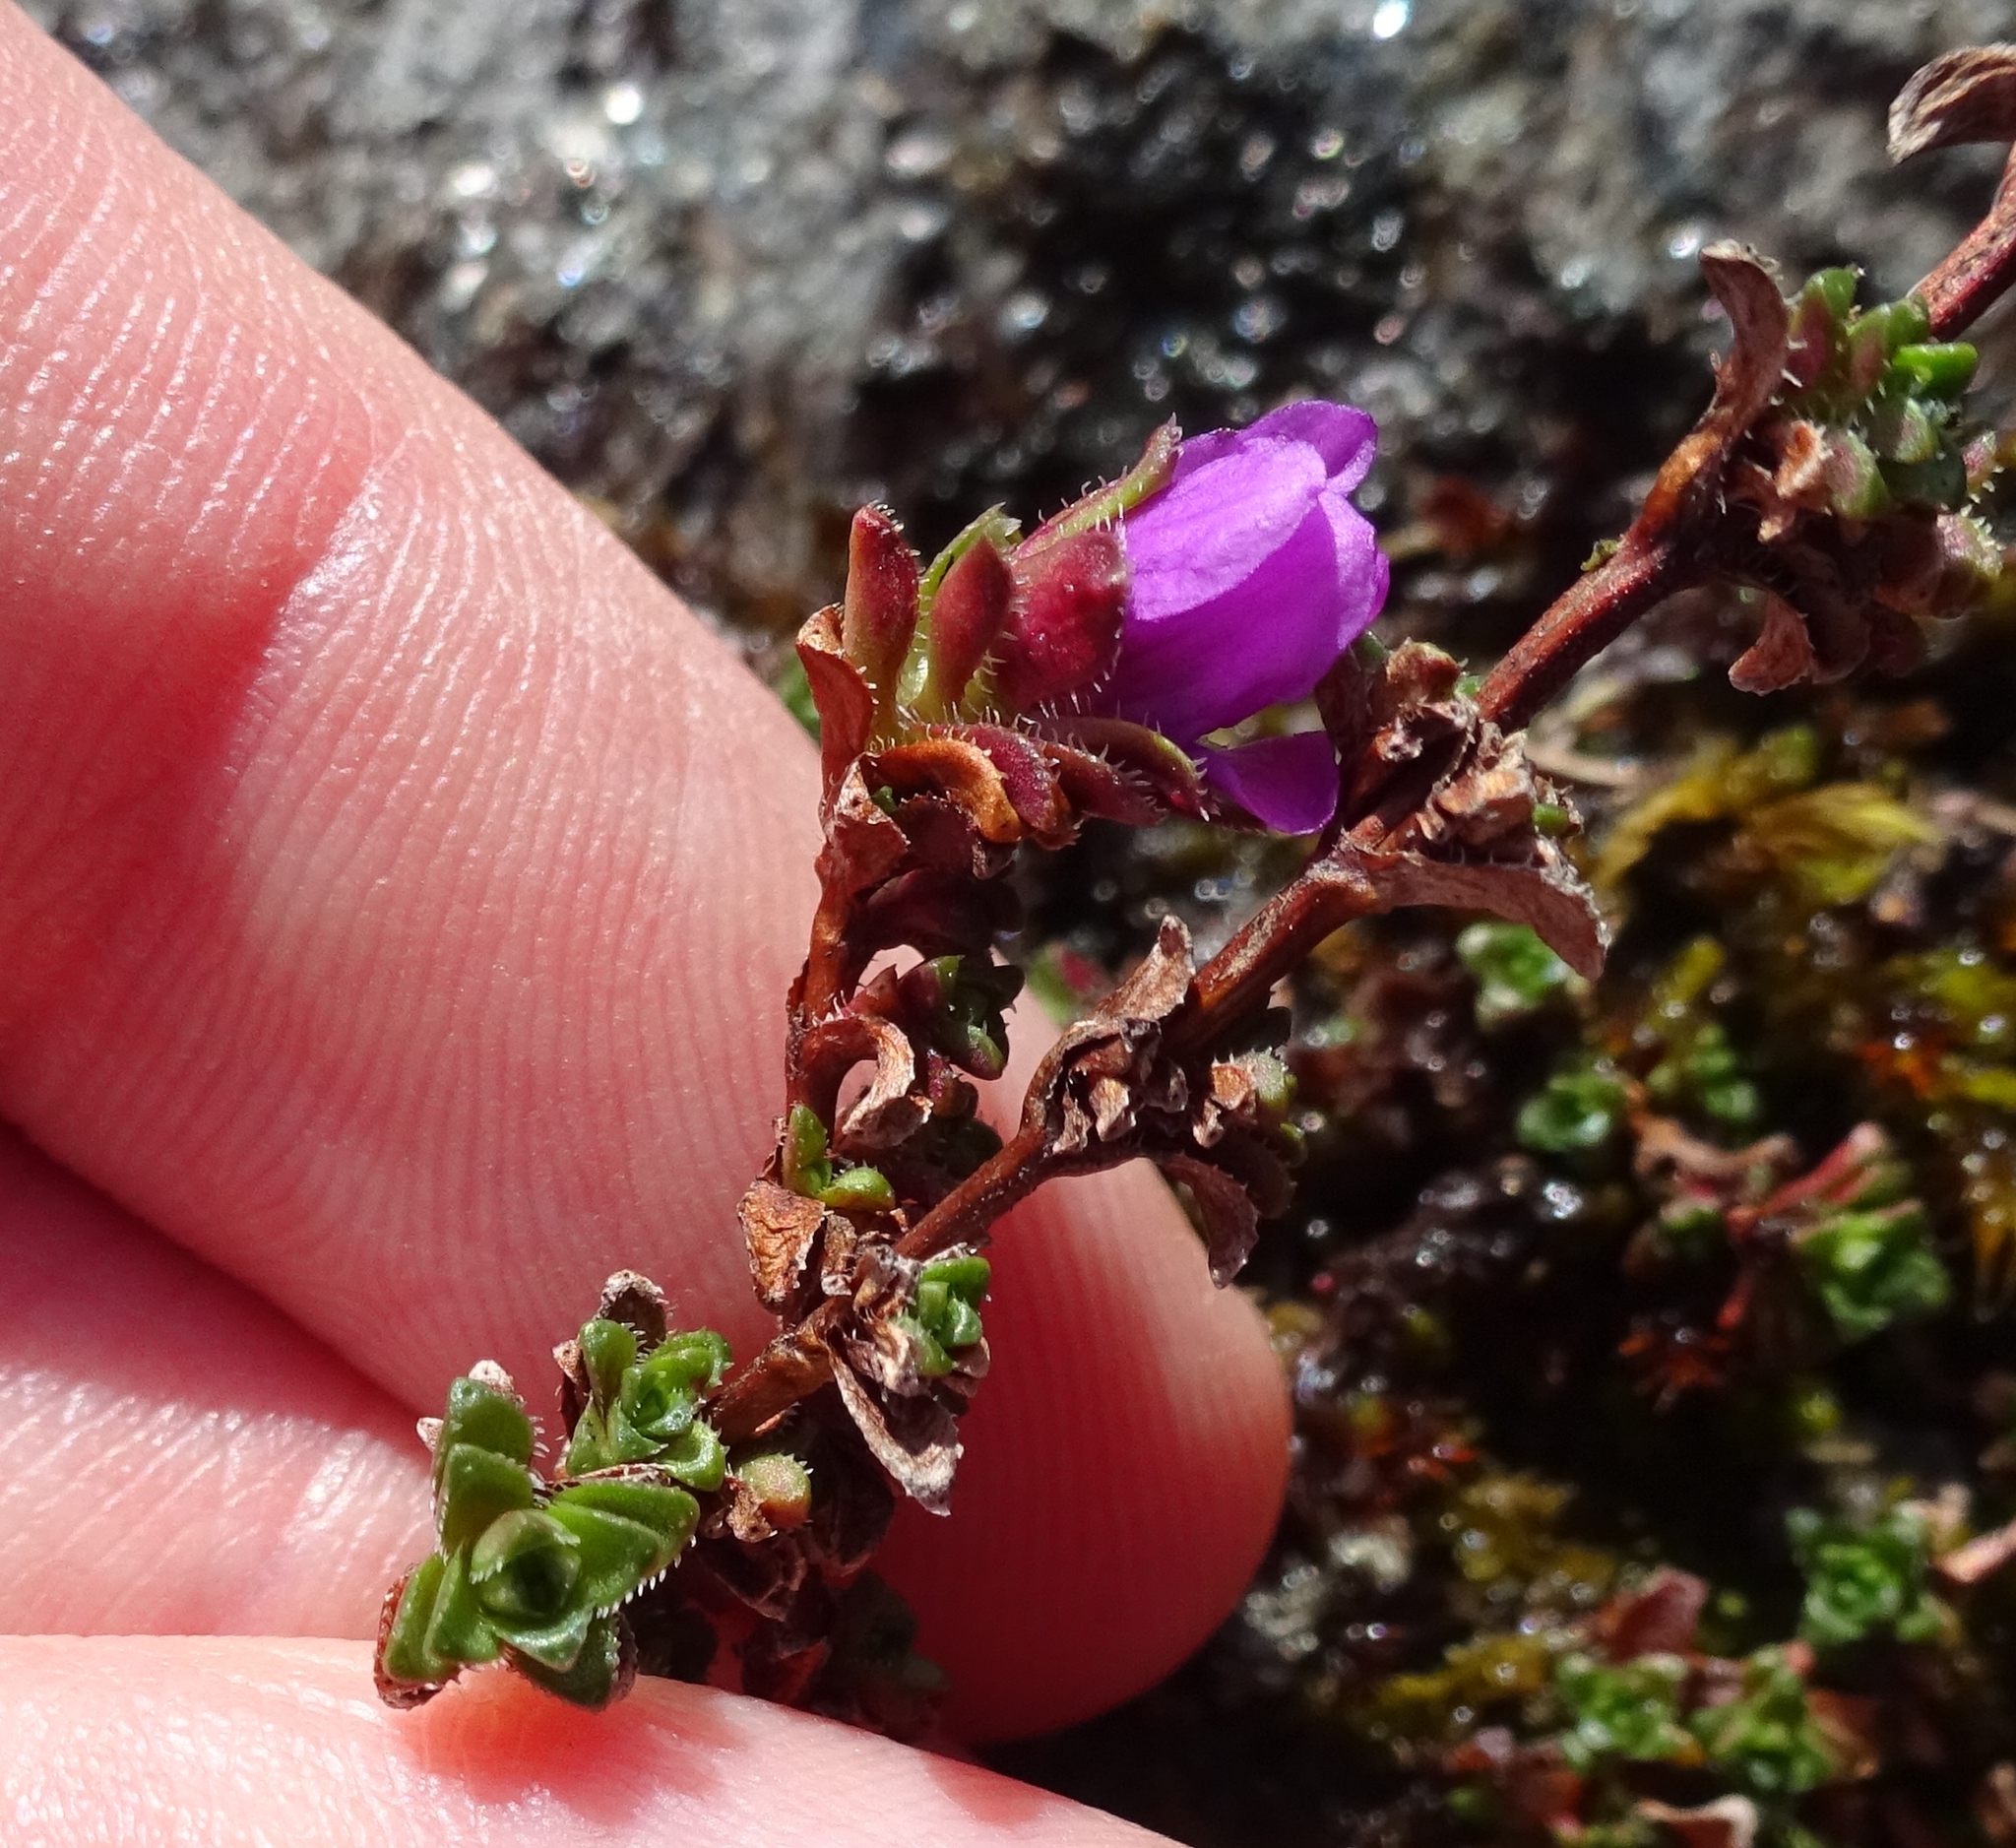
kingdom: Plantae
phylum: Tracheophyta
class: Magnoliopsida
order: Saxifragales
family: Saxifragaceae
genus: Saxifraga
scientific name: Saxifraga oppositifolia
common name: Purple saxifrage
